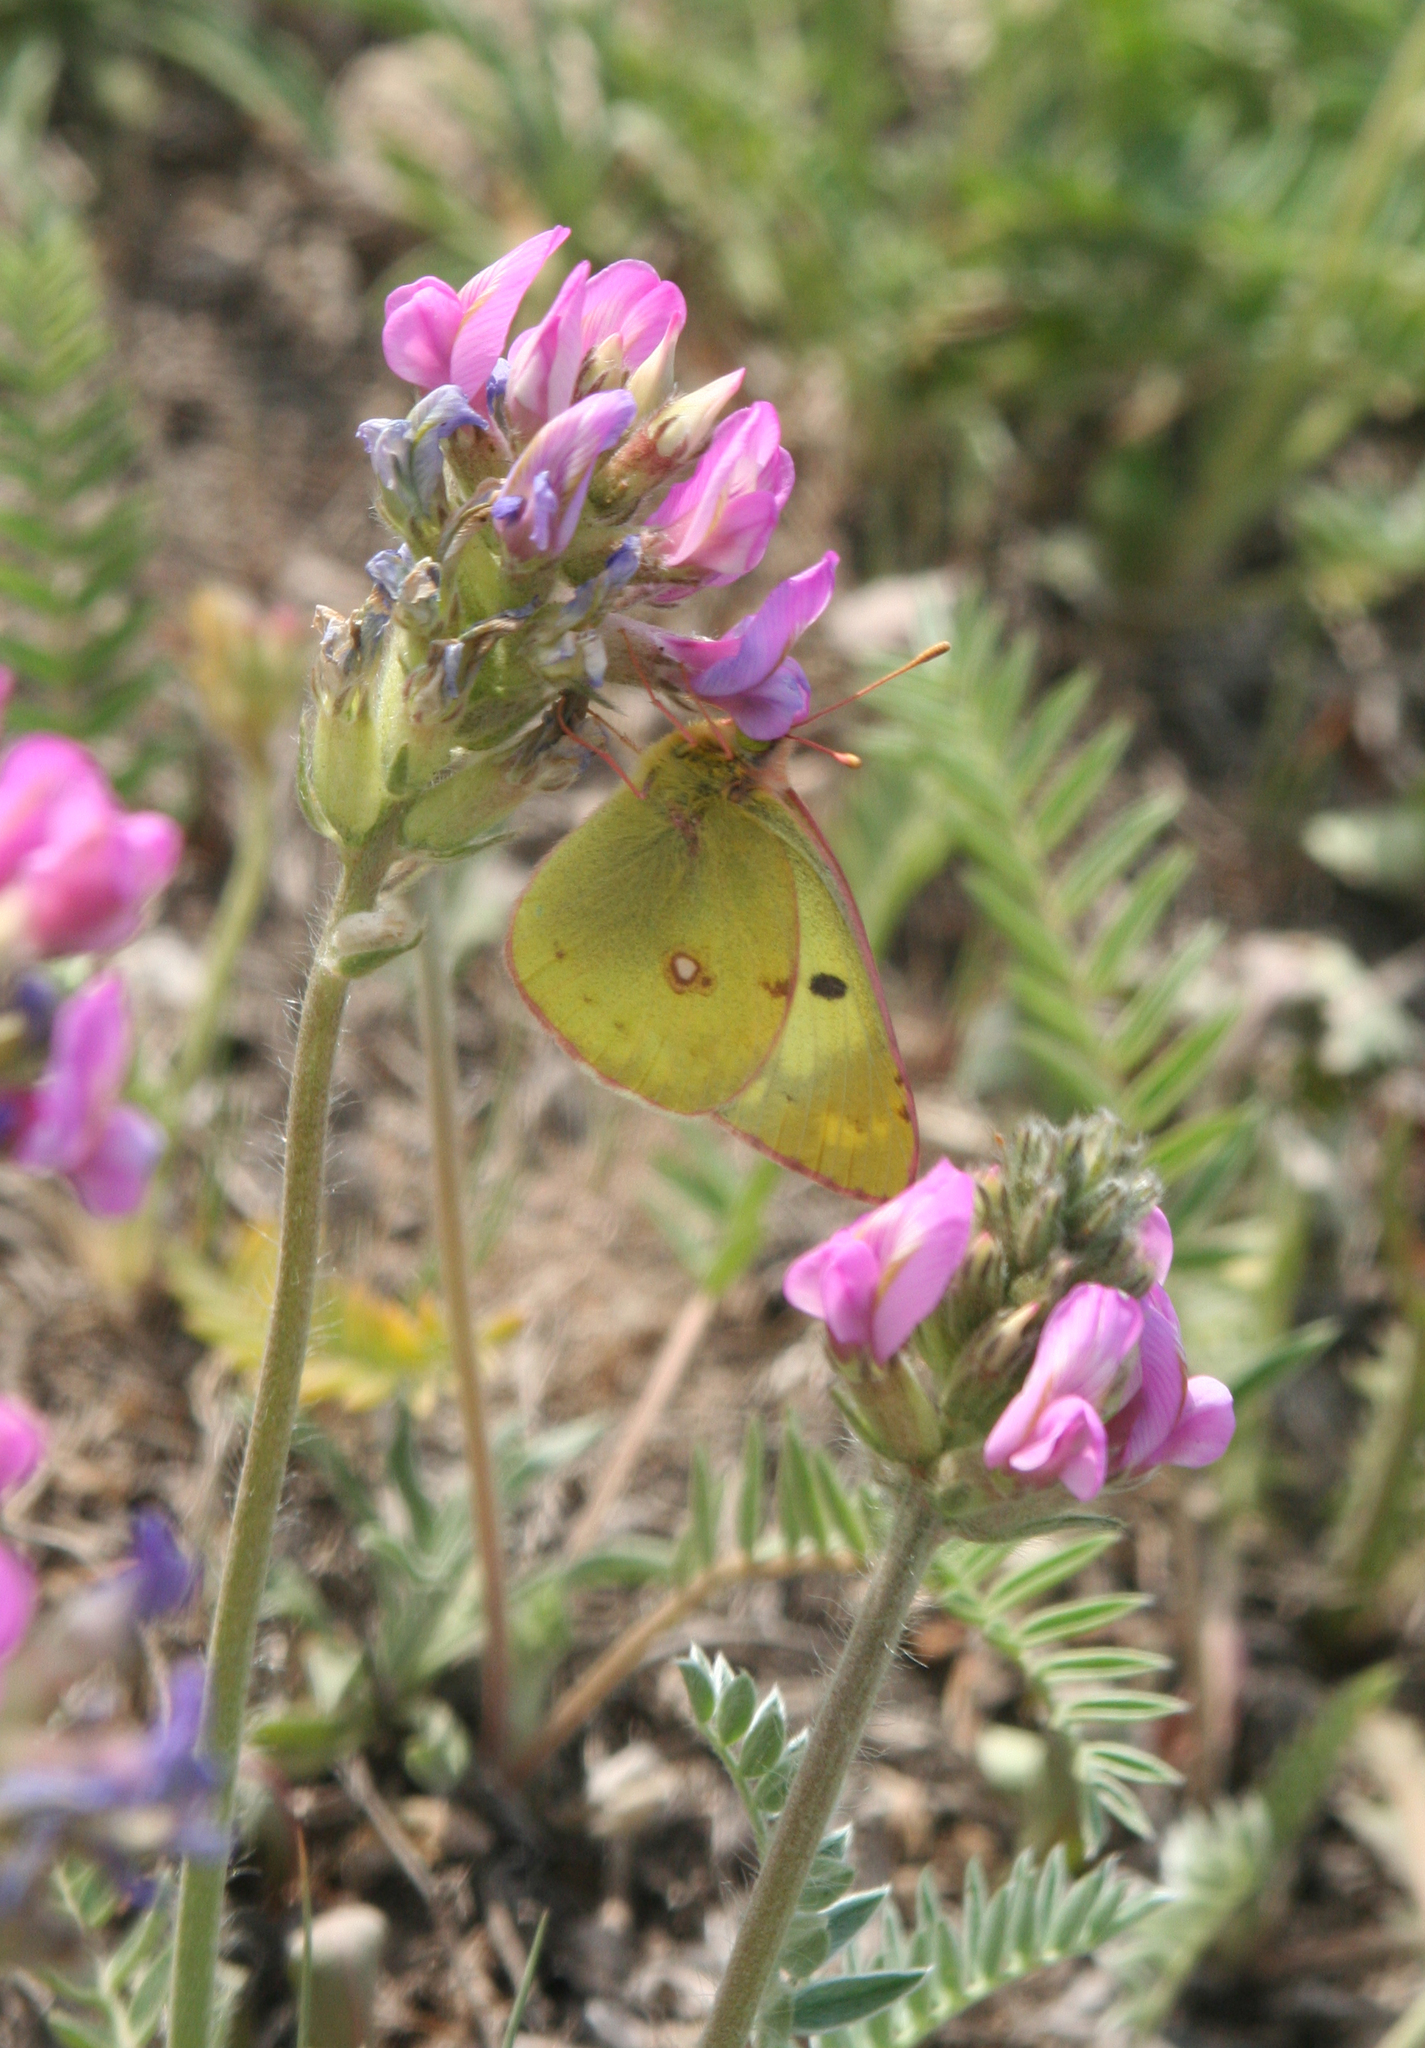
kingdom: Animalia
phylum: Arthropoda
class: Insecta
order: Lepidoptera
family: Pieridae
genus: Colias
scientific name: Colias hyale
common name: Pale clouded yellow
